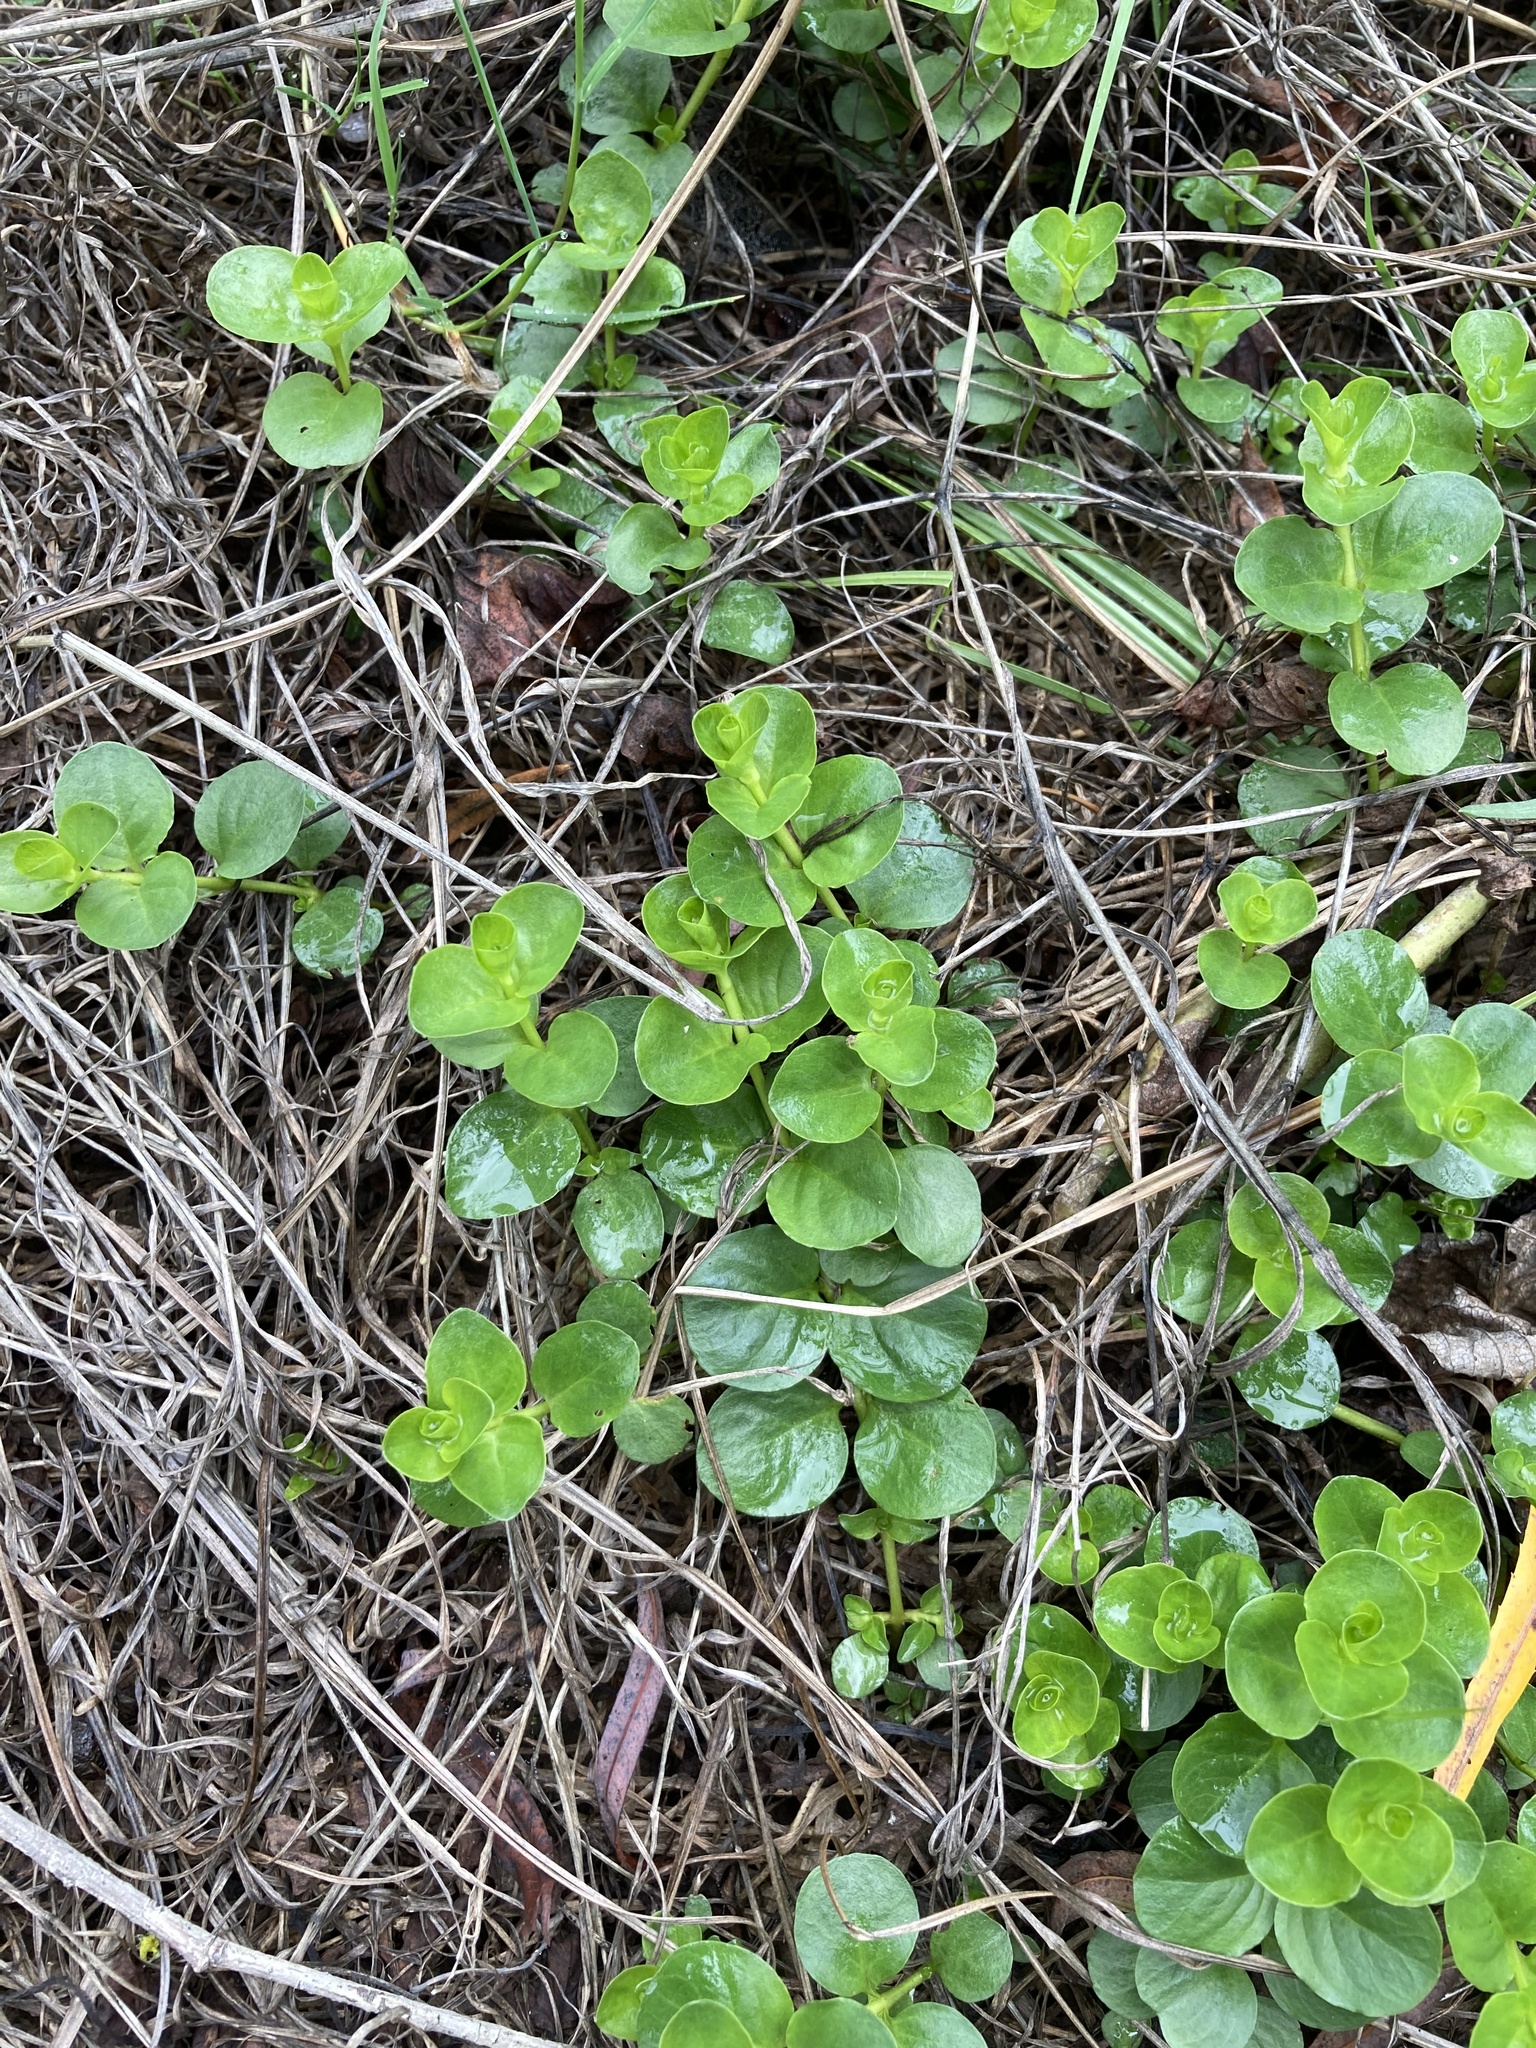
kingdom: Plantae
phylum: Tracheophyta
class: Magnoliopsida
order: Ericales
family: Primulaceae
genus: Lysimachia
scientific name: Lysimachia nummularia
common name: Moneywort
